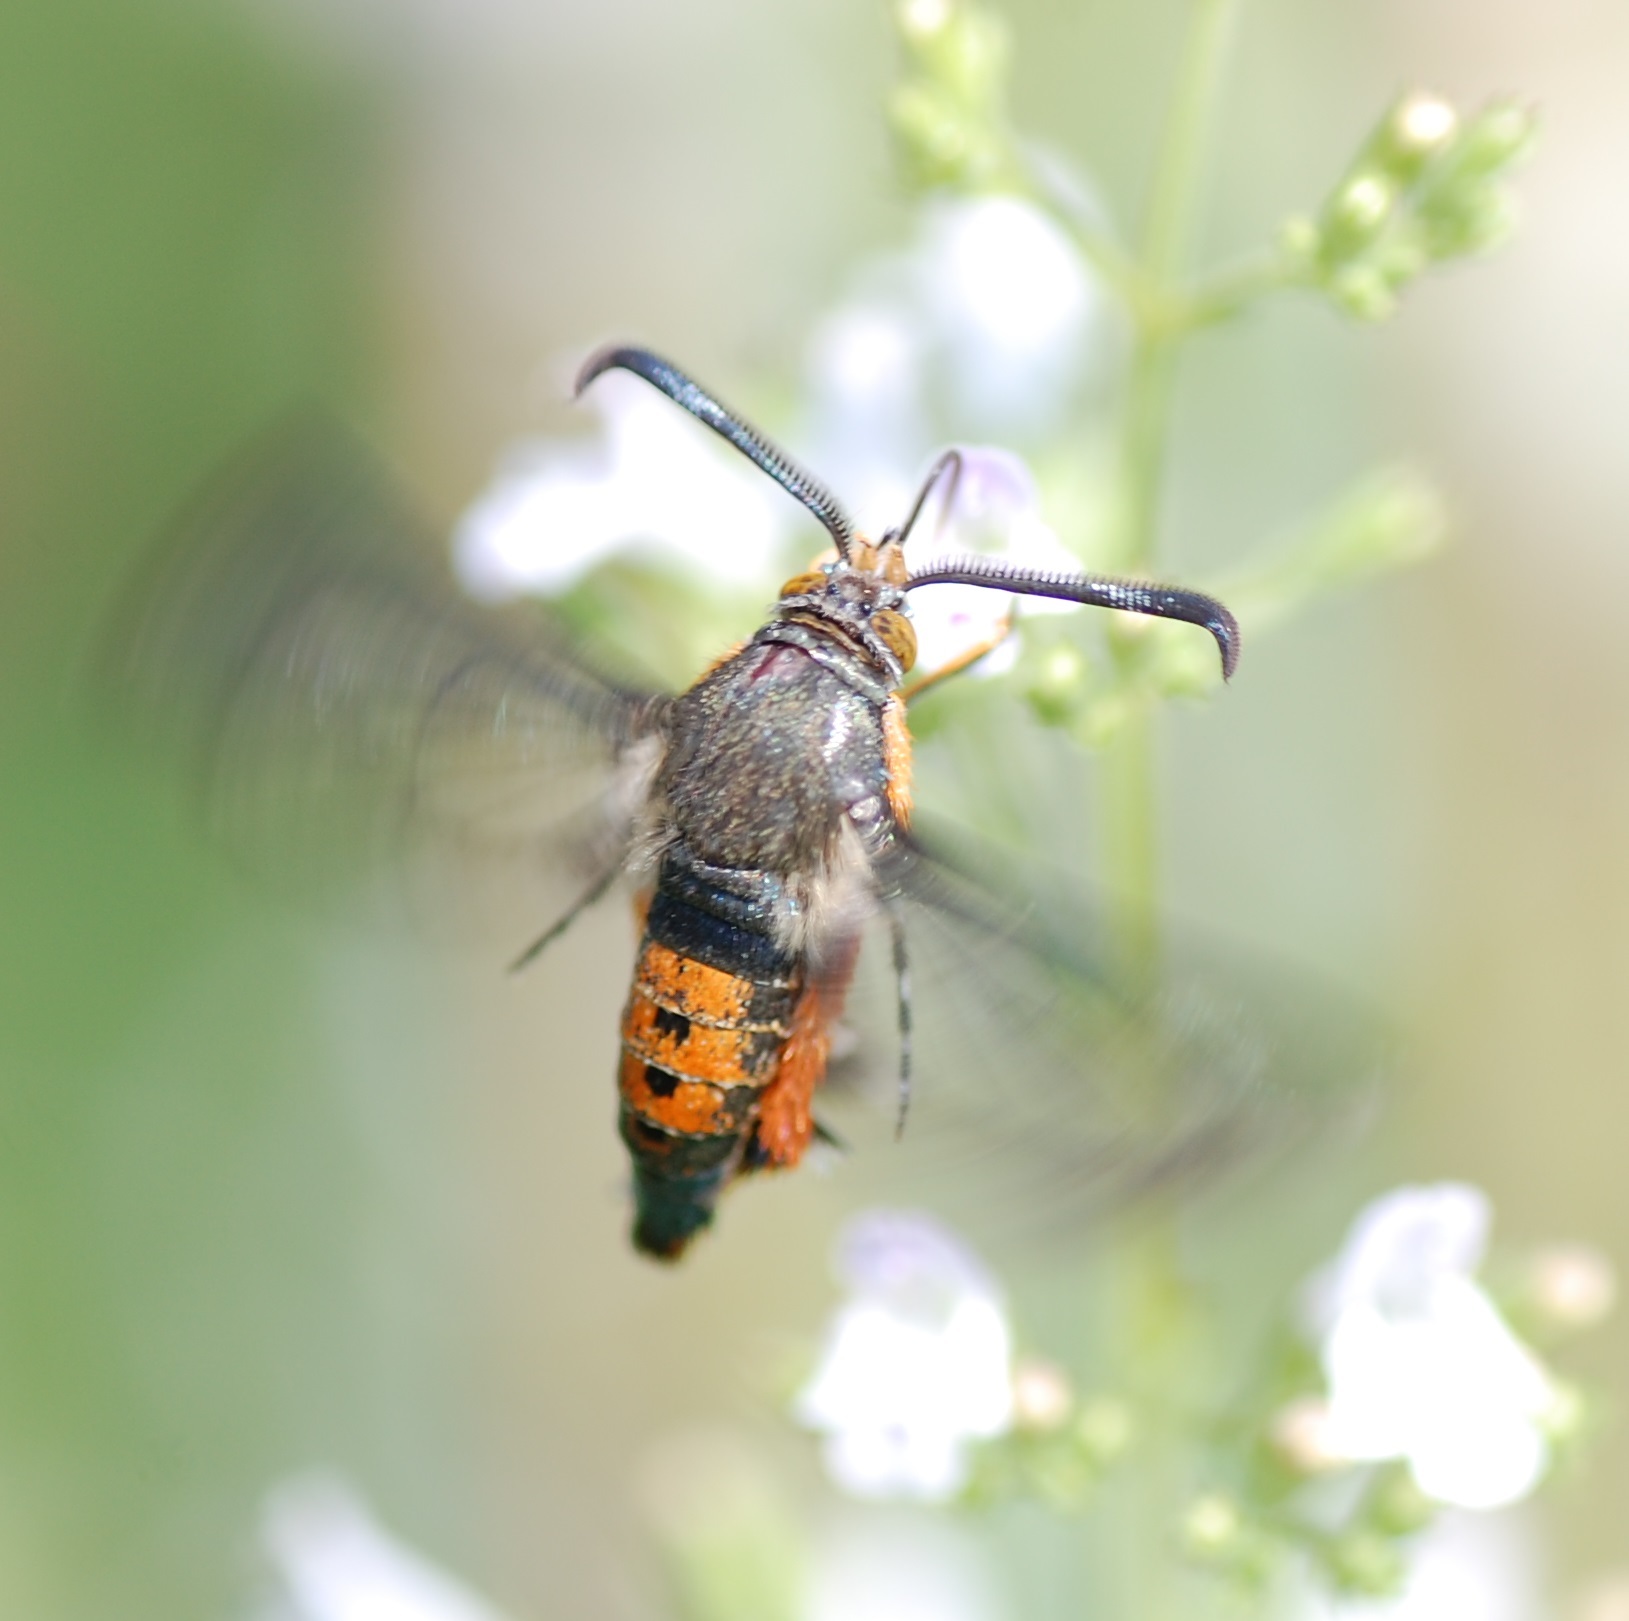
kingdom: Animalia
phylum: Arthropoda
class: Insecta
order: Lepidoptera
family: Sesiidae
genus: Eichlinia
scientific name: Eichlinia cucurbitae
